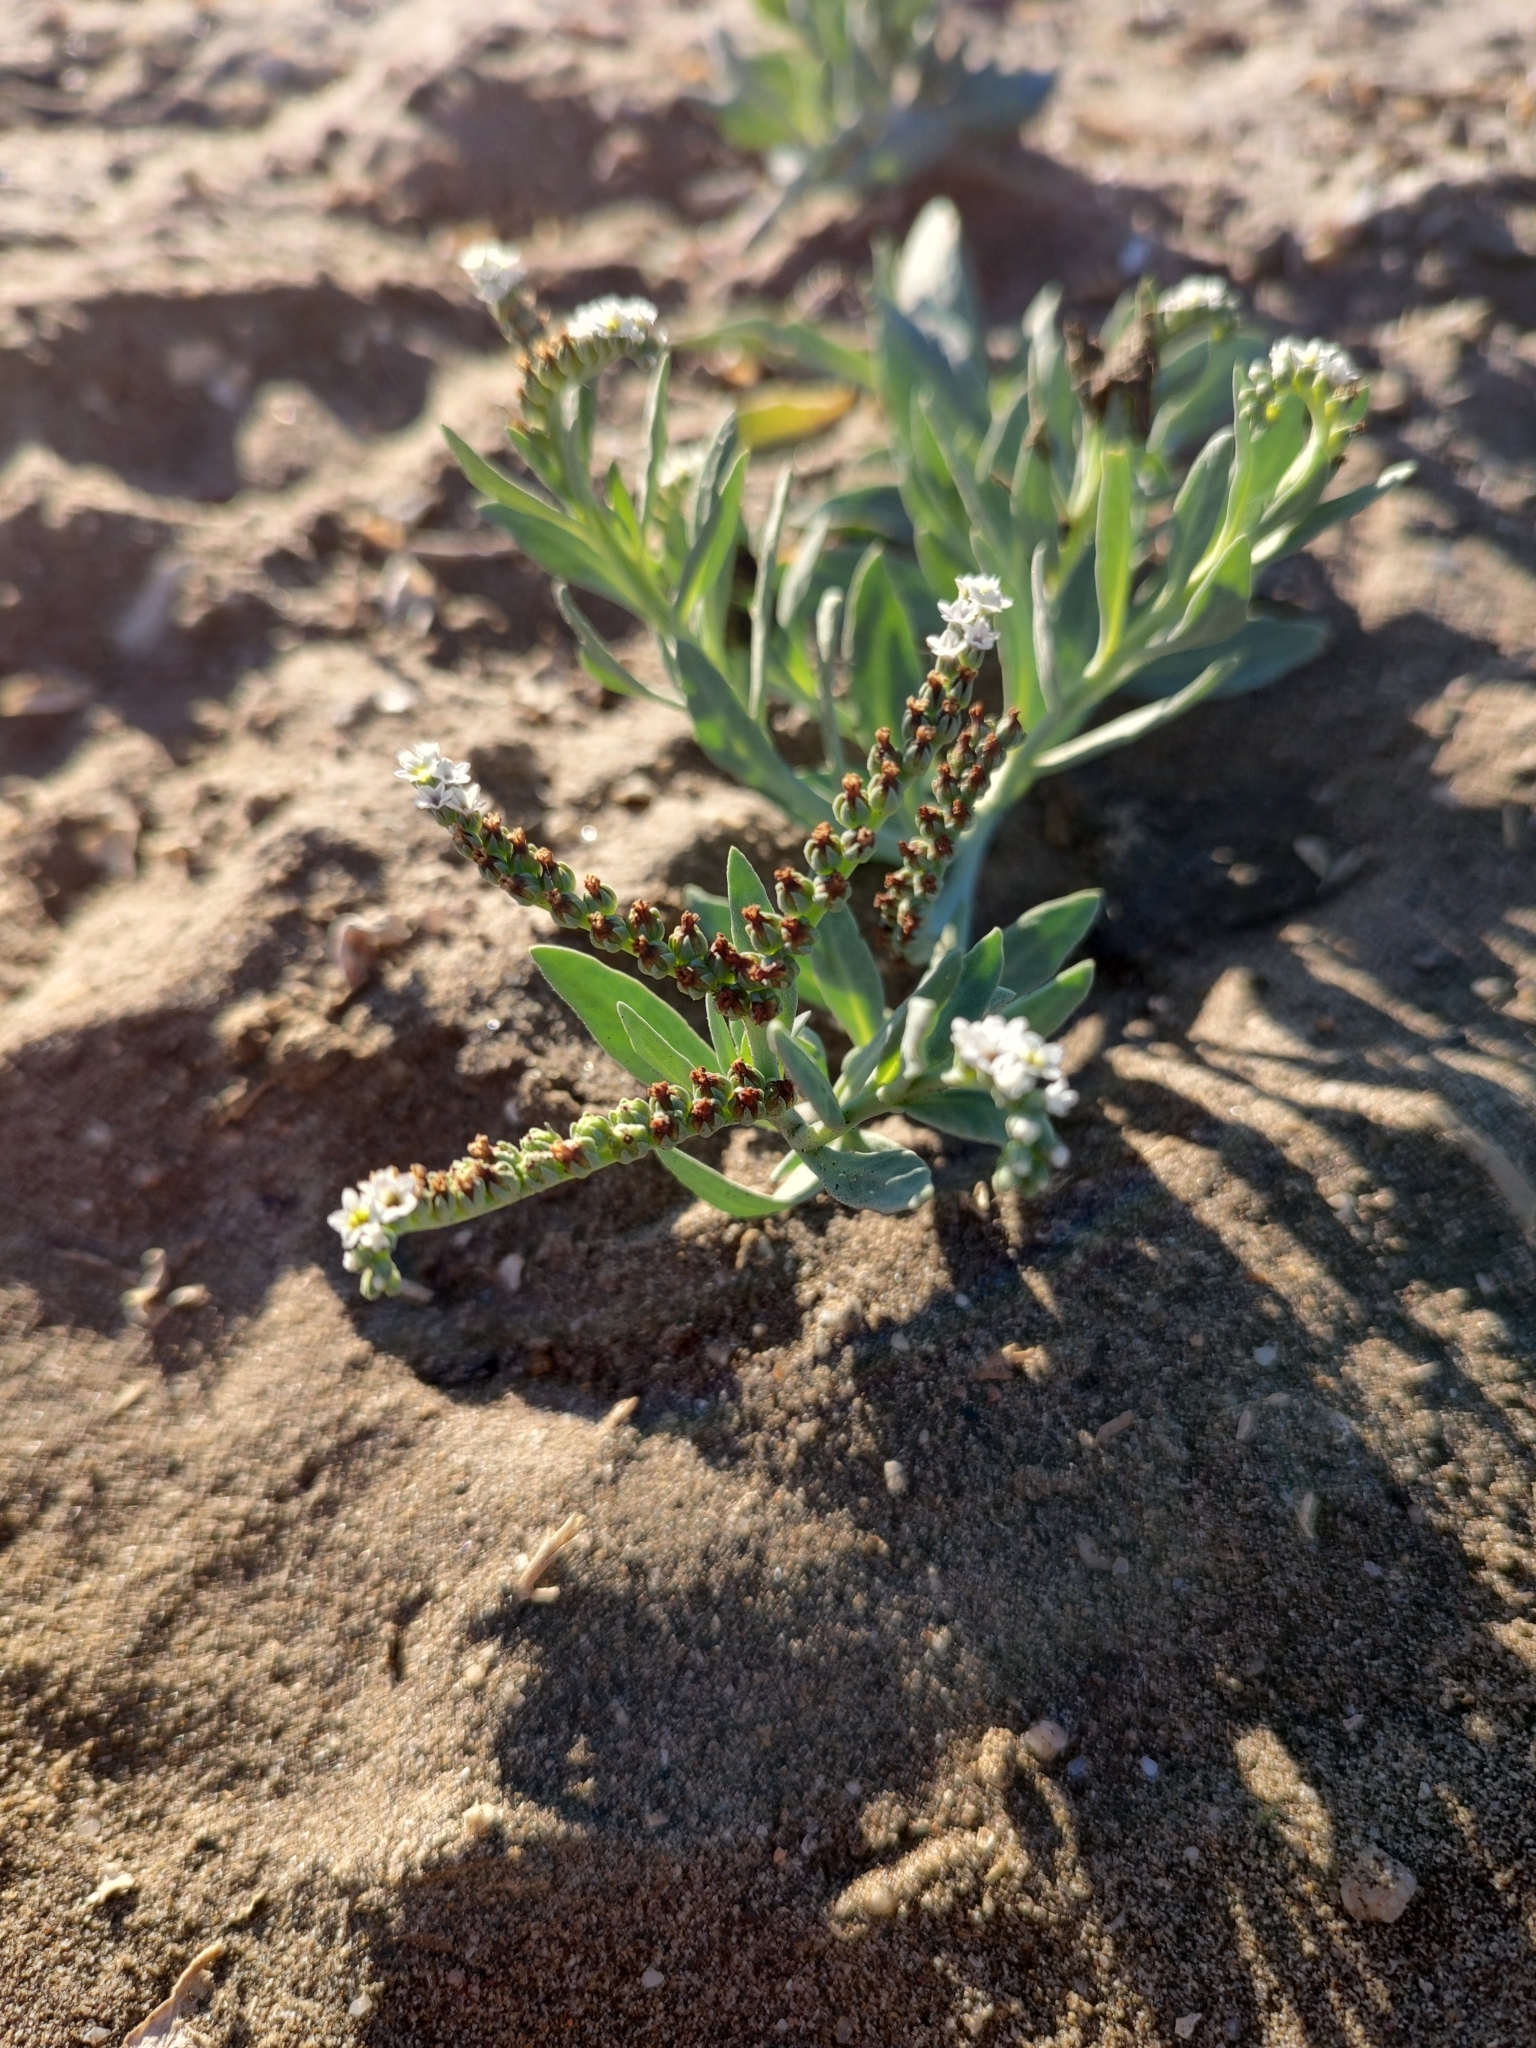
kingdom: Plantae
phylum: Tracheophyta
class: Magnoliopsida
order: Boraginales
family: Heliotropiaceae
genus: Heliotropium
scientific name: Heliotropium curassavicum
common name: Seaside heliotrope
